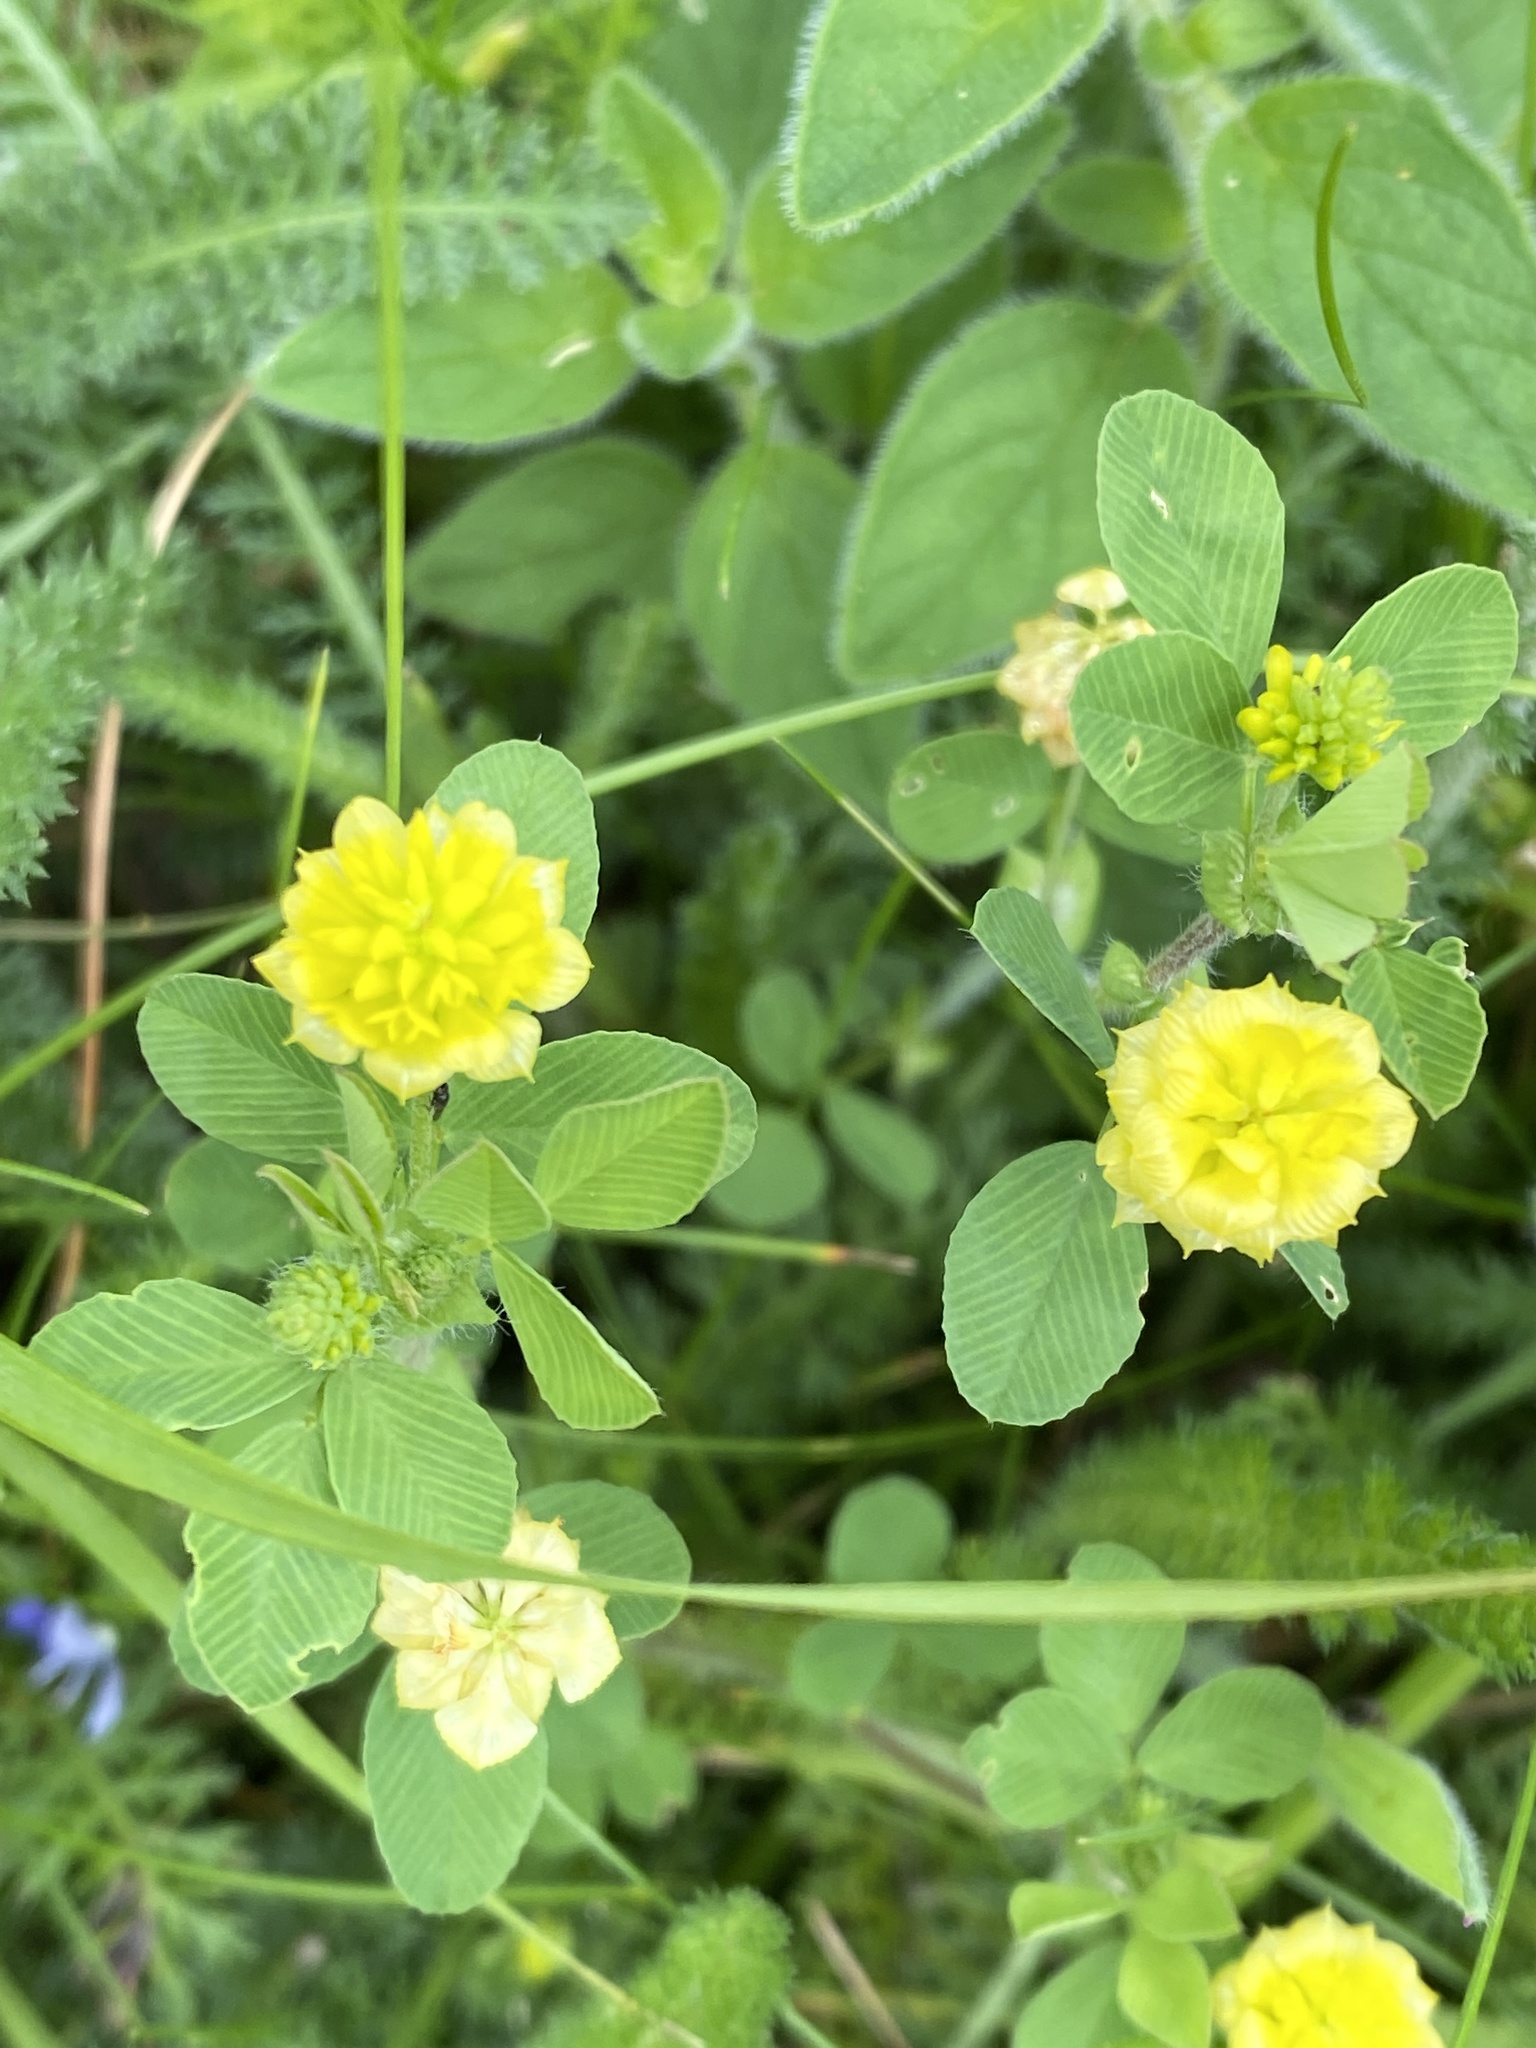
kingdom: Plantae
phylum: Tracheophyta
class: Magnoliopsida
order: Fabales
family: Fabaceae
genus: Trifolium
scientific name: Trifolium campestre
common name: Field clover
